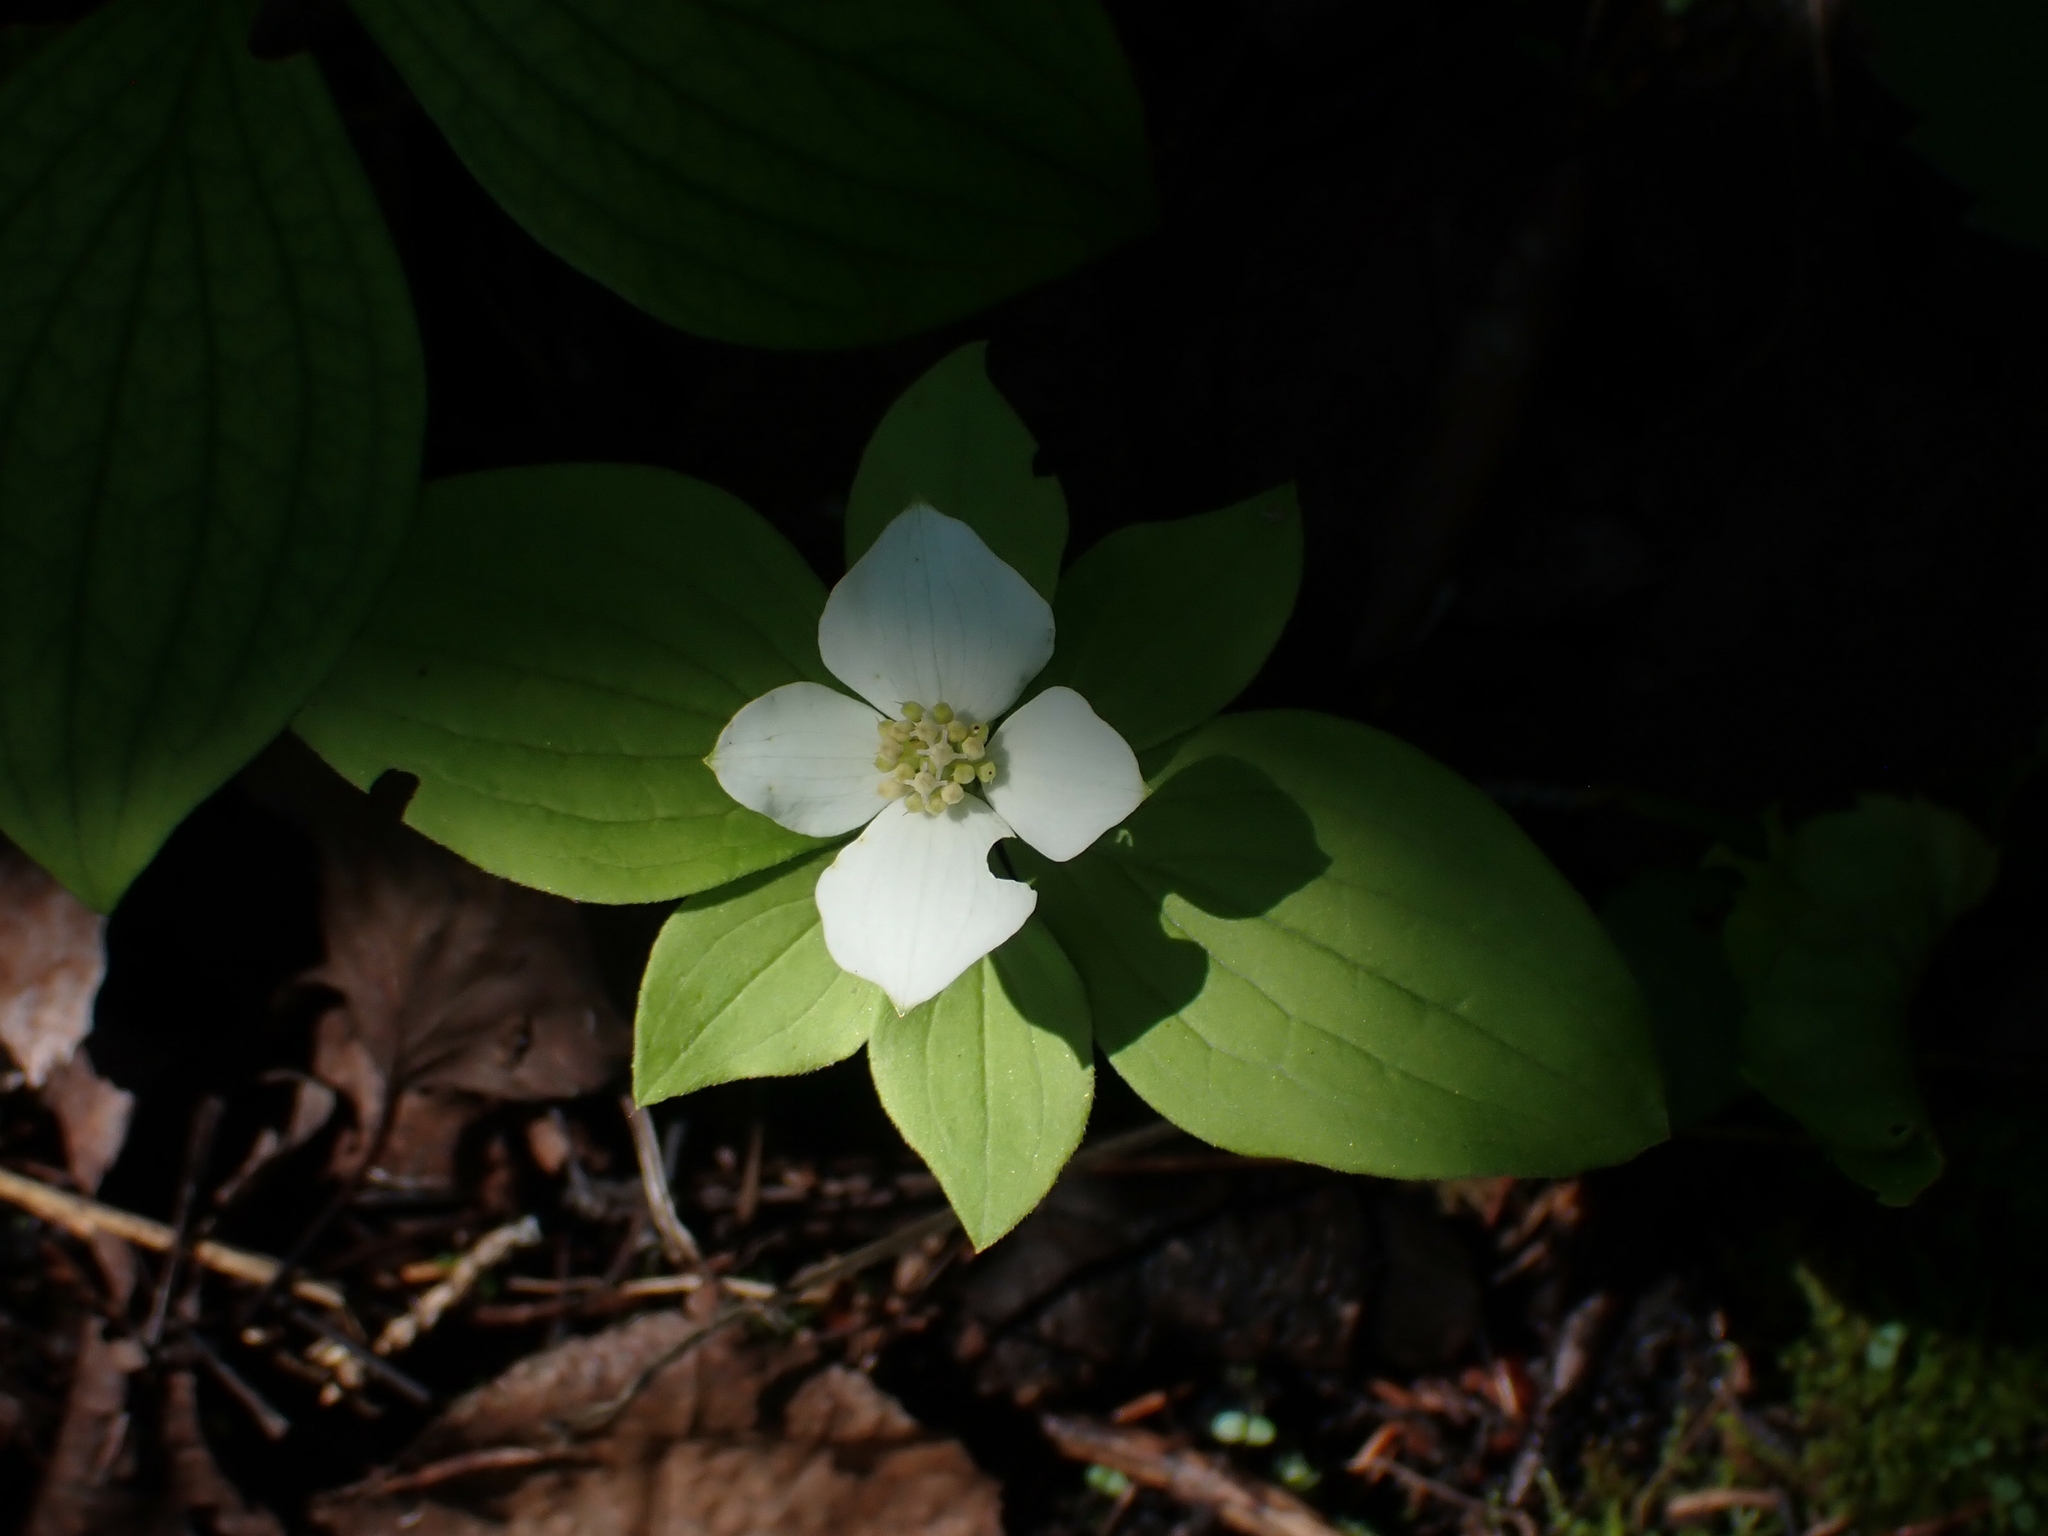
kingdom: Plantae
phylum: Tracheophyta
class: Magnoliopsida
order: Cornales
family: Cornaceae
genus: Cornus
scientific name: Cornus canadensis
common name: Creeping dogwood
